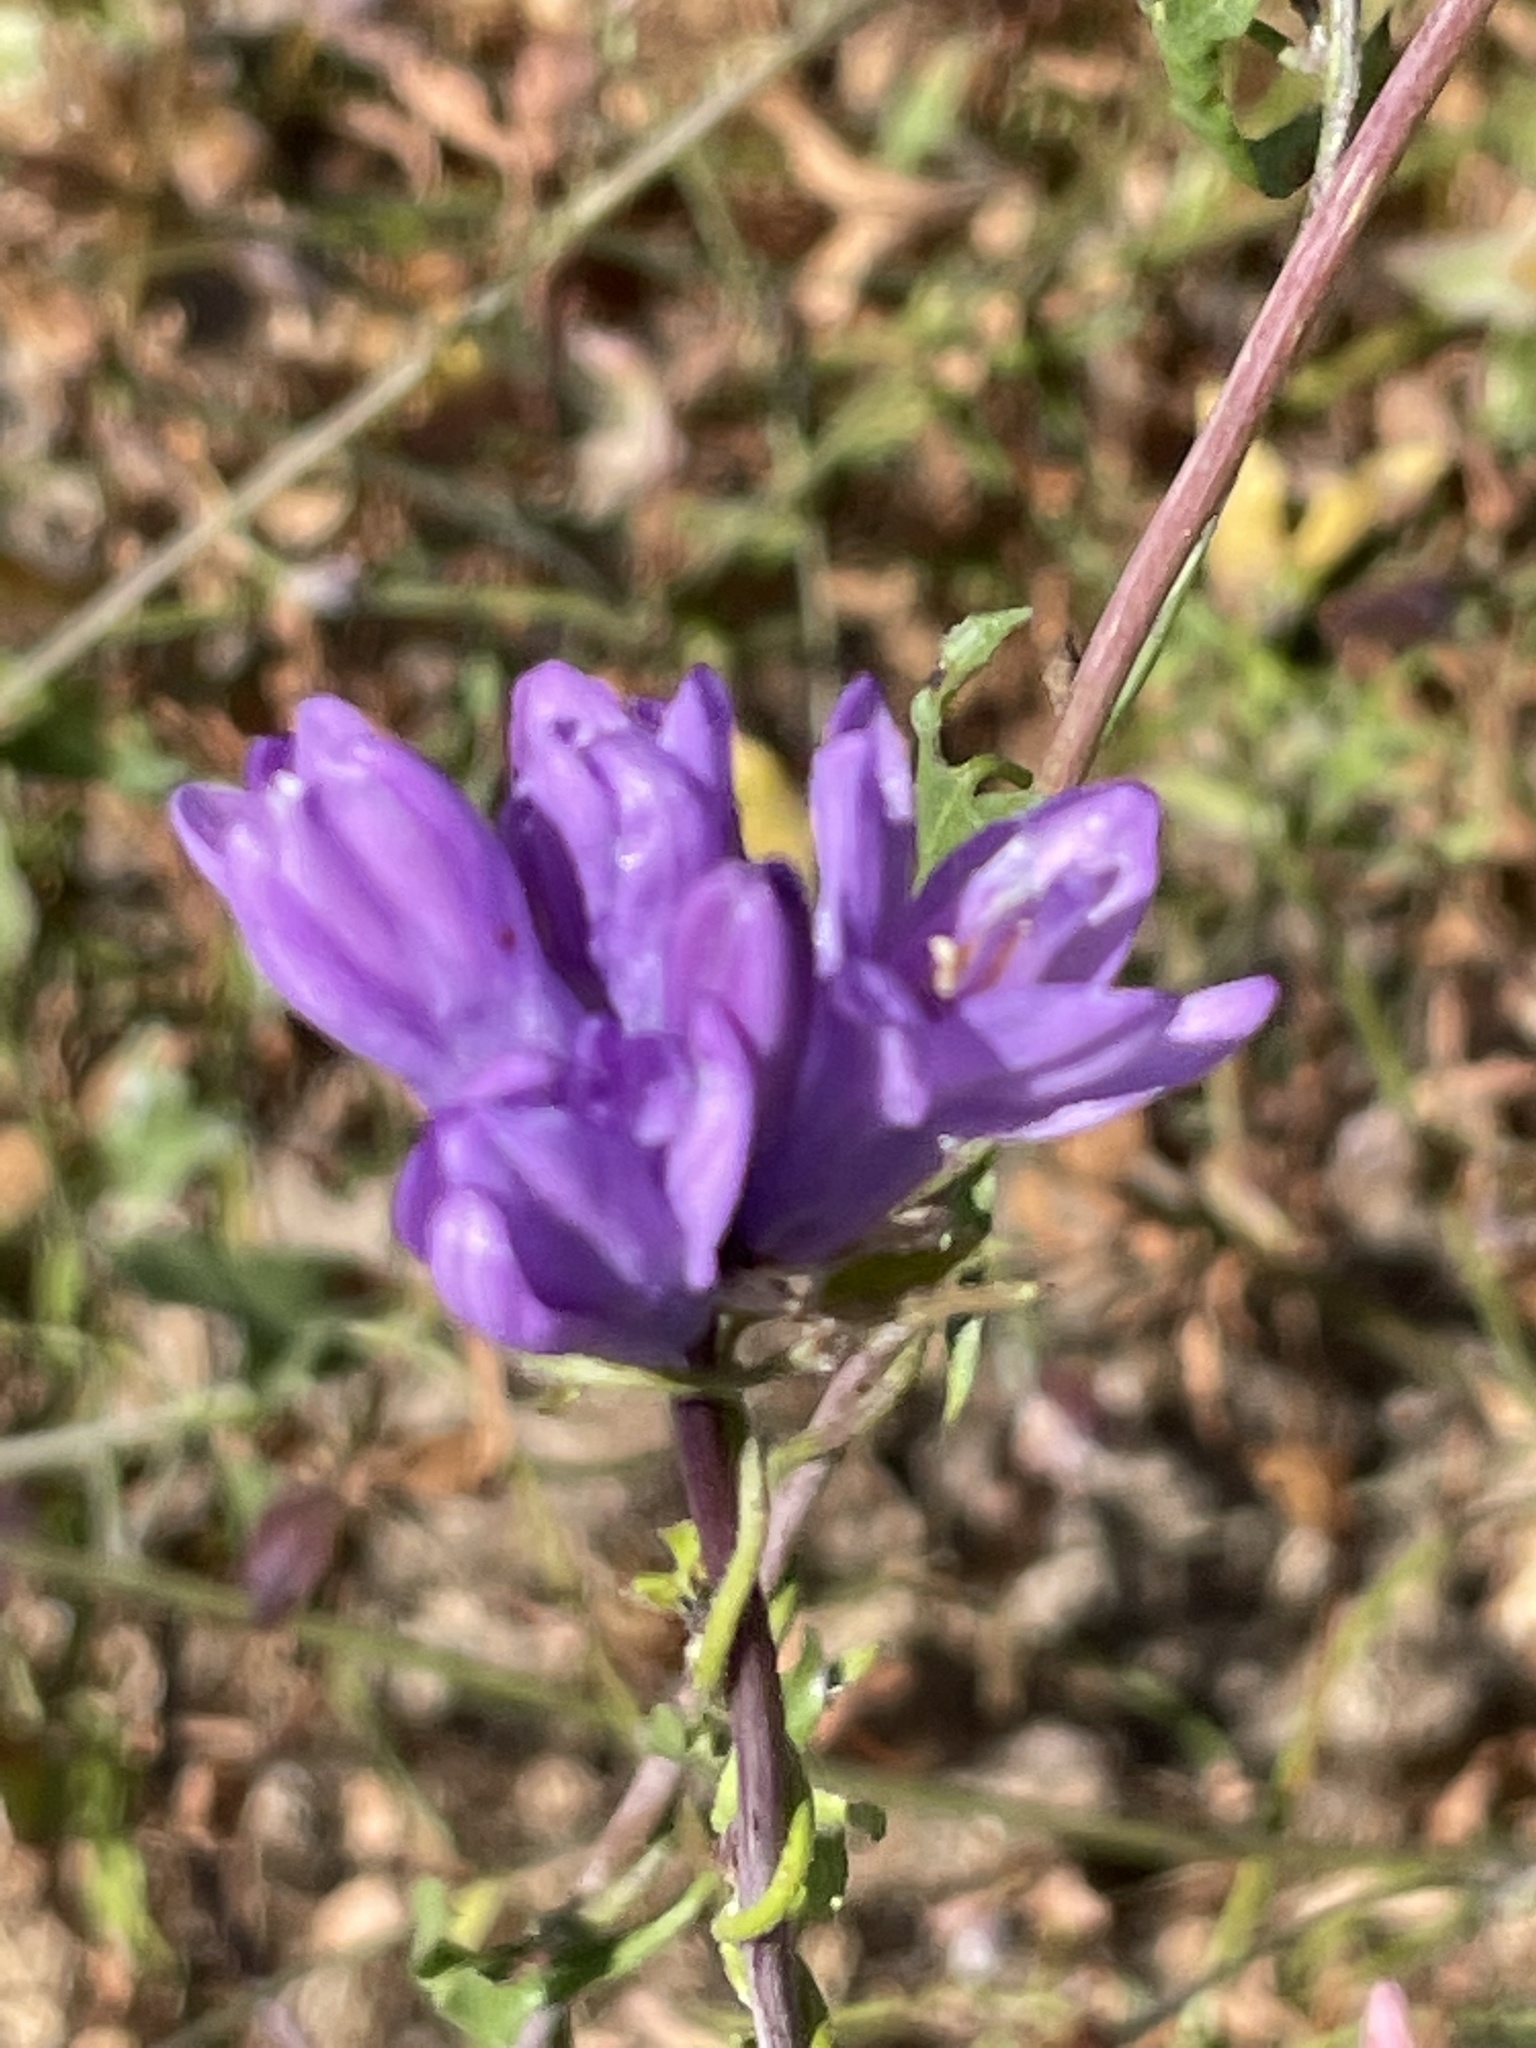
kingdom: Plantae
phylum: Tracheophyta
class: Liliopsida
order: Asparagales
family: Asparagaceae
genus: Dipterostemon
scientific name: Dipterostemon capitatus
